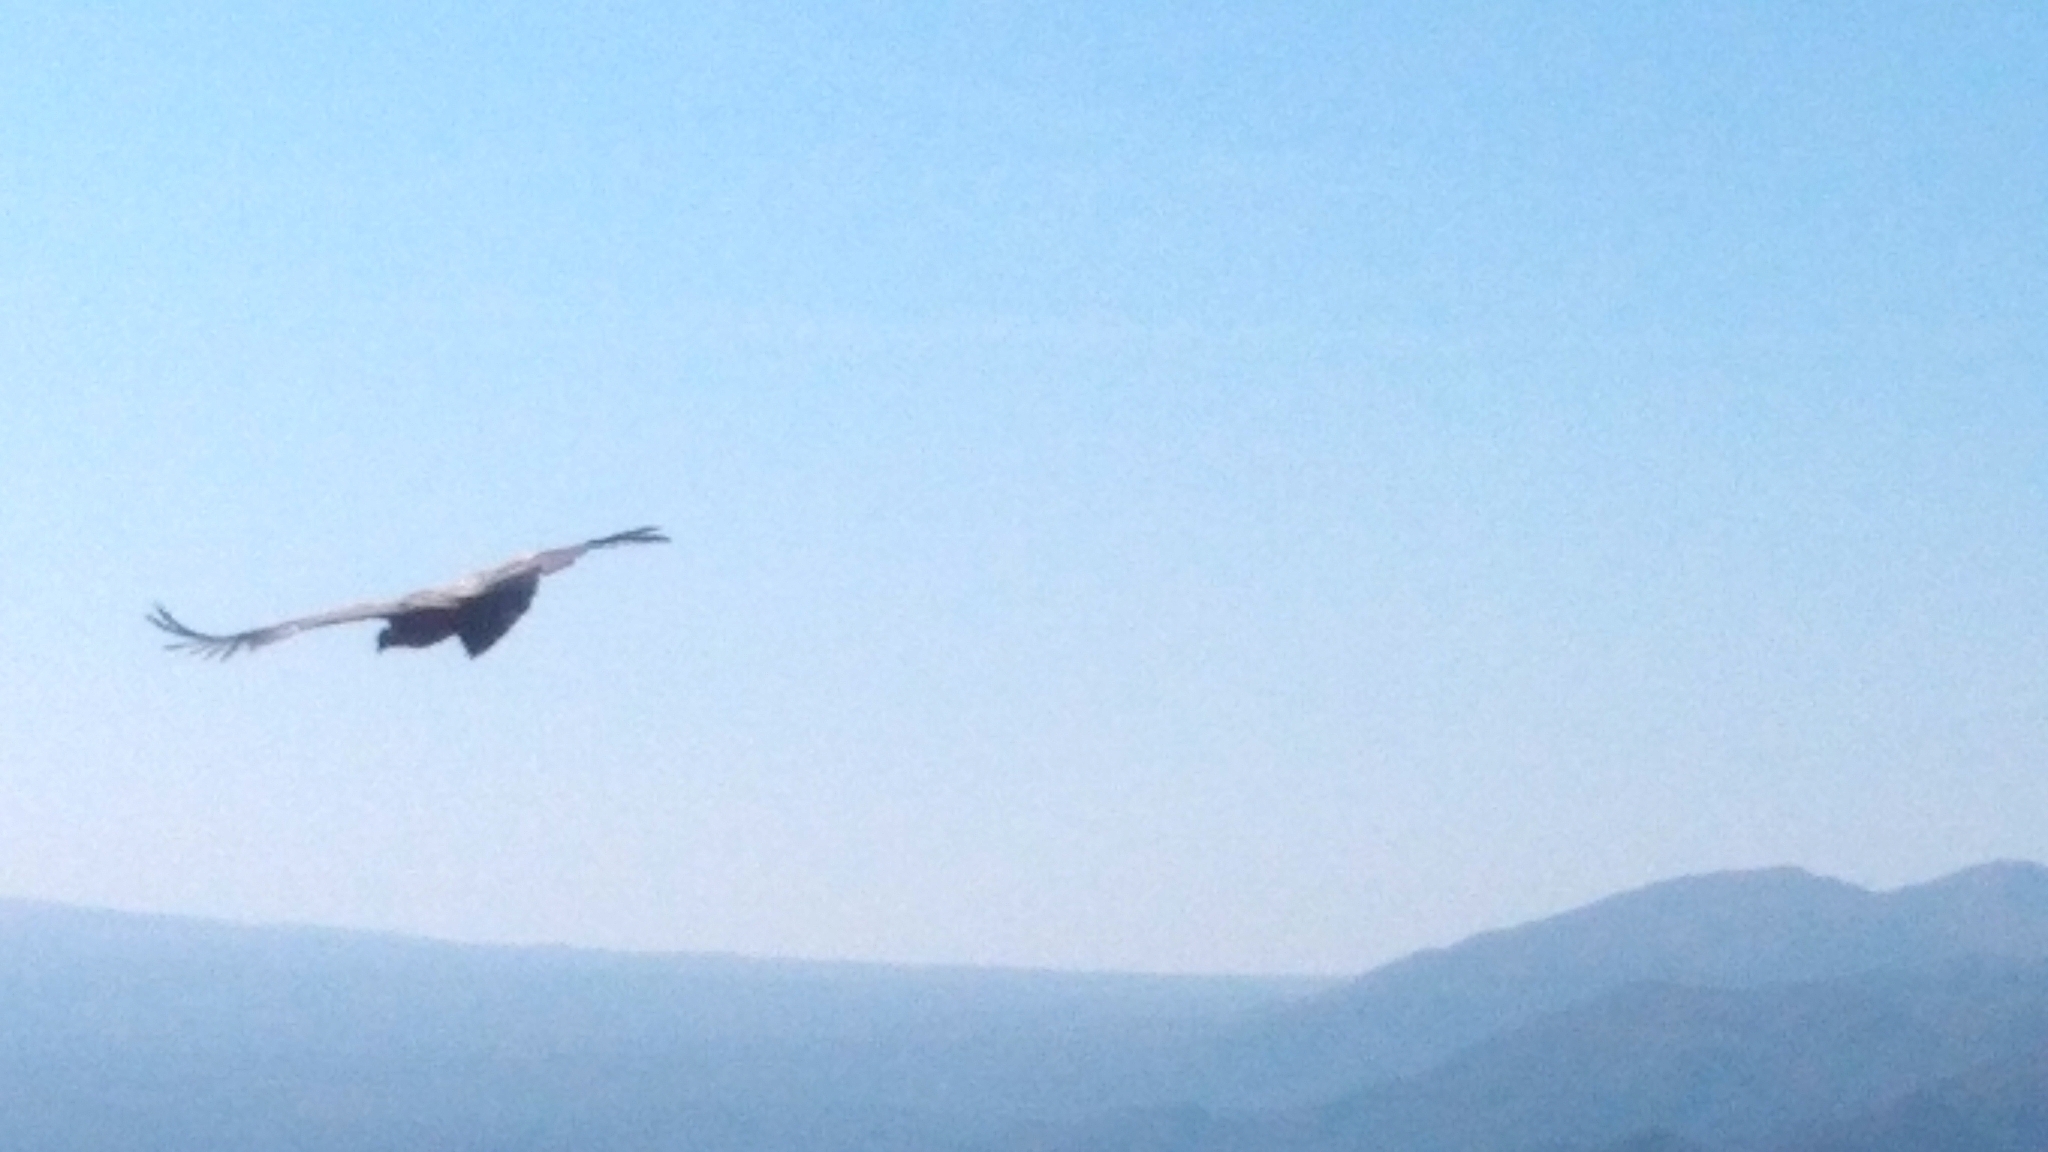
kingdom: Animalia
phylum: Chordata
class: Aves
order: Accipitriformes
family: Cathartidae
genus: Vultur
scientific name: Vultur gryphus
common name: Andean condor
